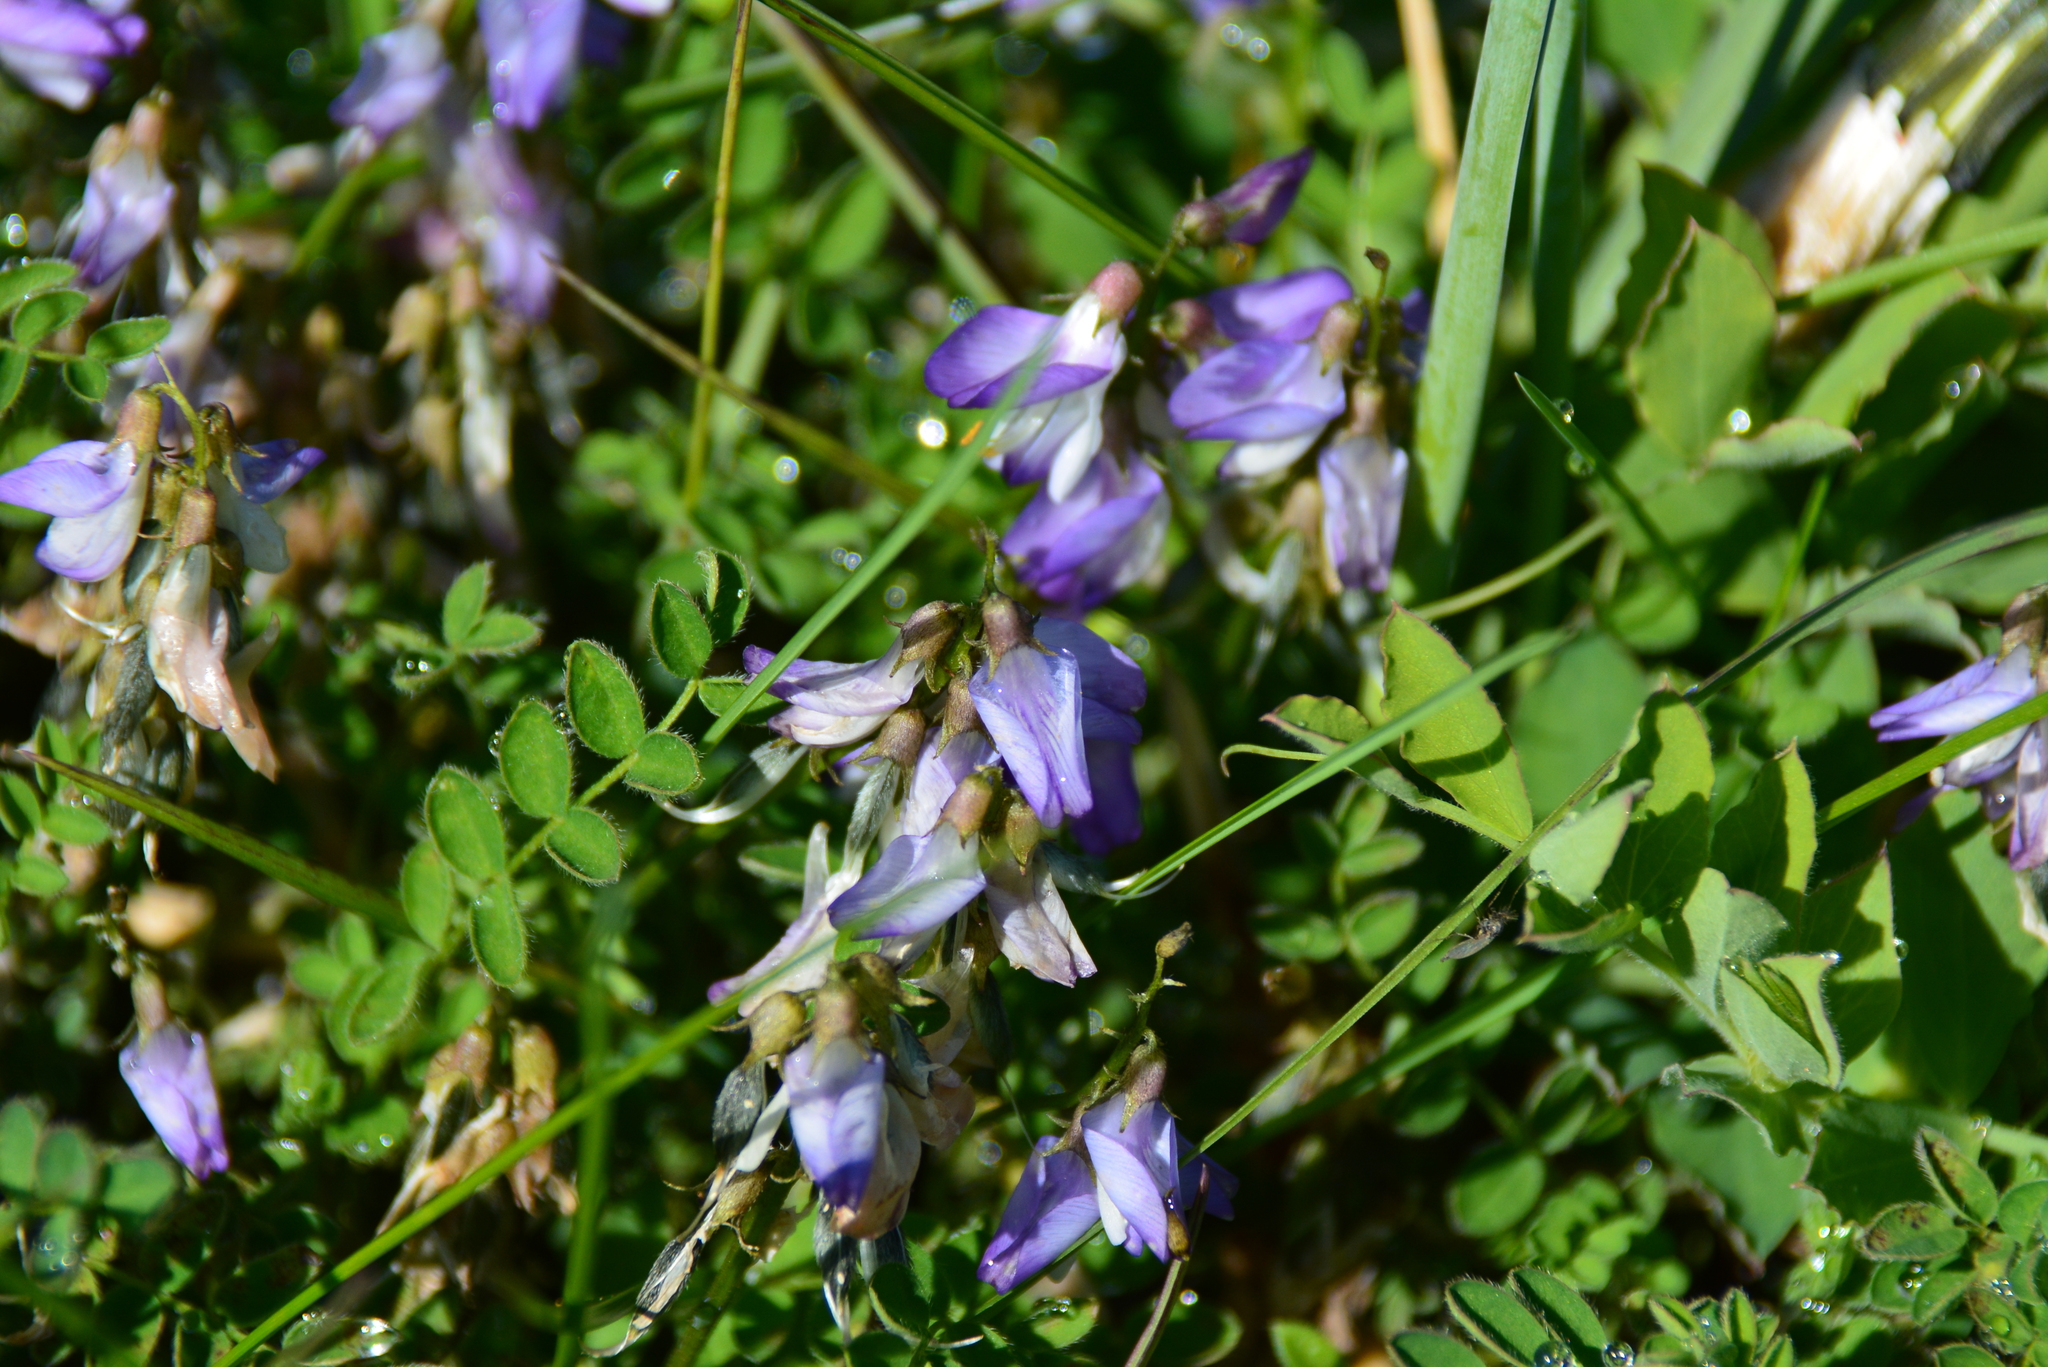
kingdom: Plantae
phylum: Tracheophyta
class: Magnoliopsida
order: Fabales
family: Fabaceae
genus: Astragalus
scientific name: Astragalus alpinus
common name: Alpine milk-vetch
